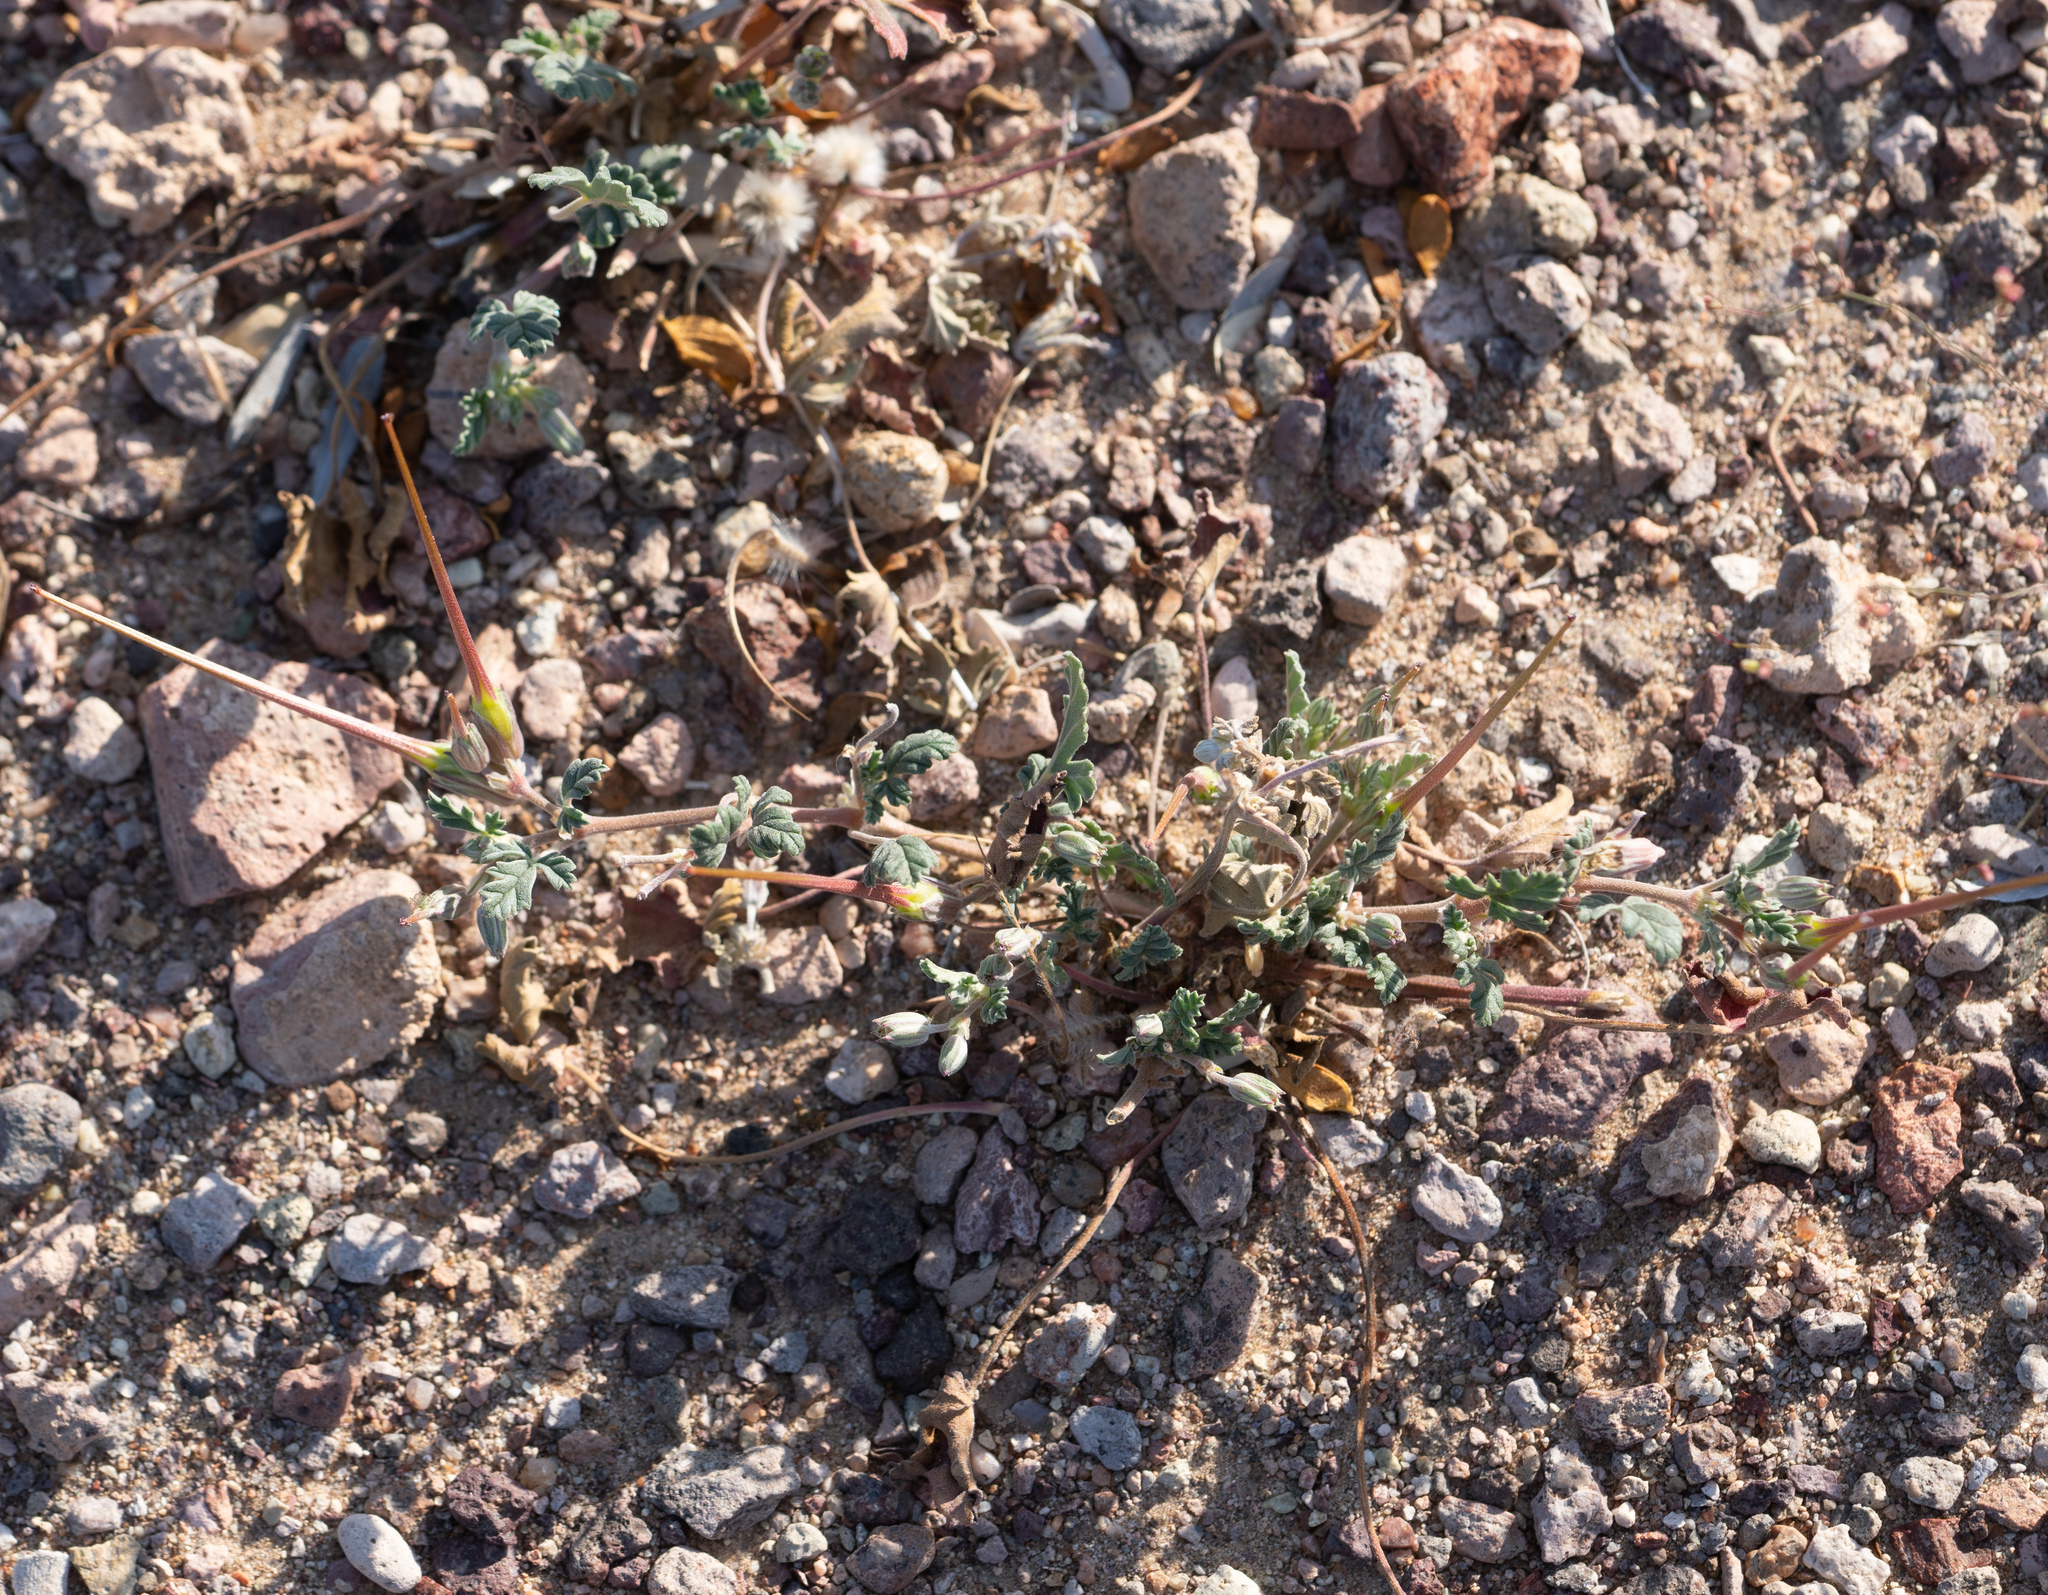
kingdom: Plantae
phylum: Tracheophyta
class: Magnoliopsida
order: Geraniales
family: Geraniaceae
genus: Erodium
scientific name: Erodium texanum
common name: Texas stork's-bill
